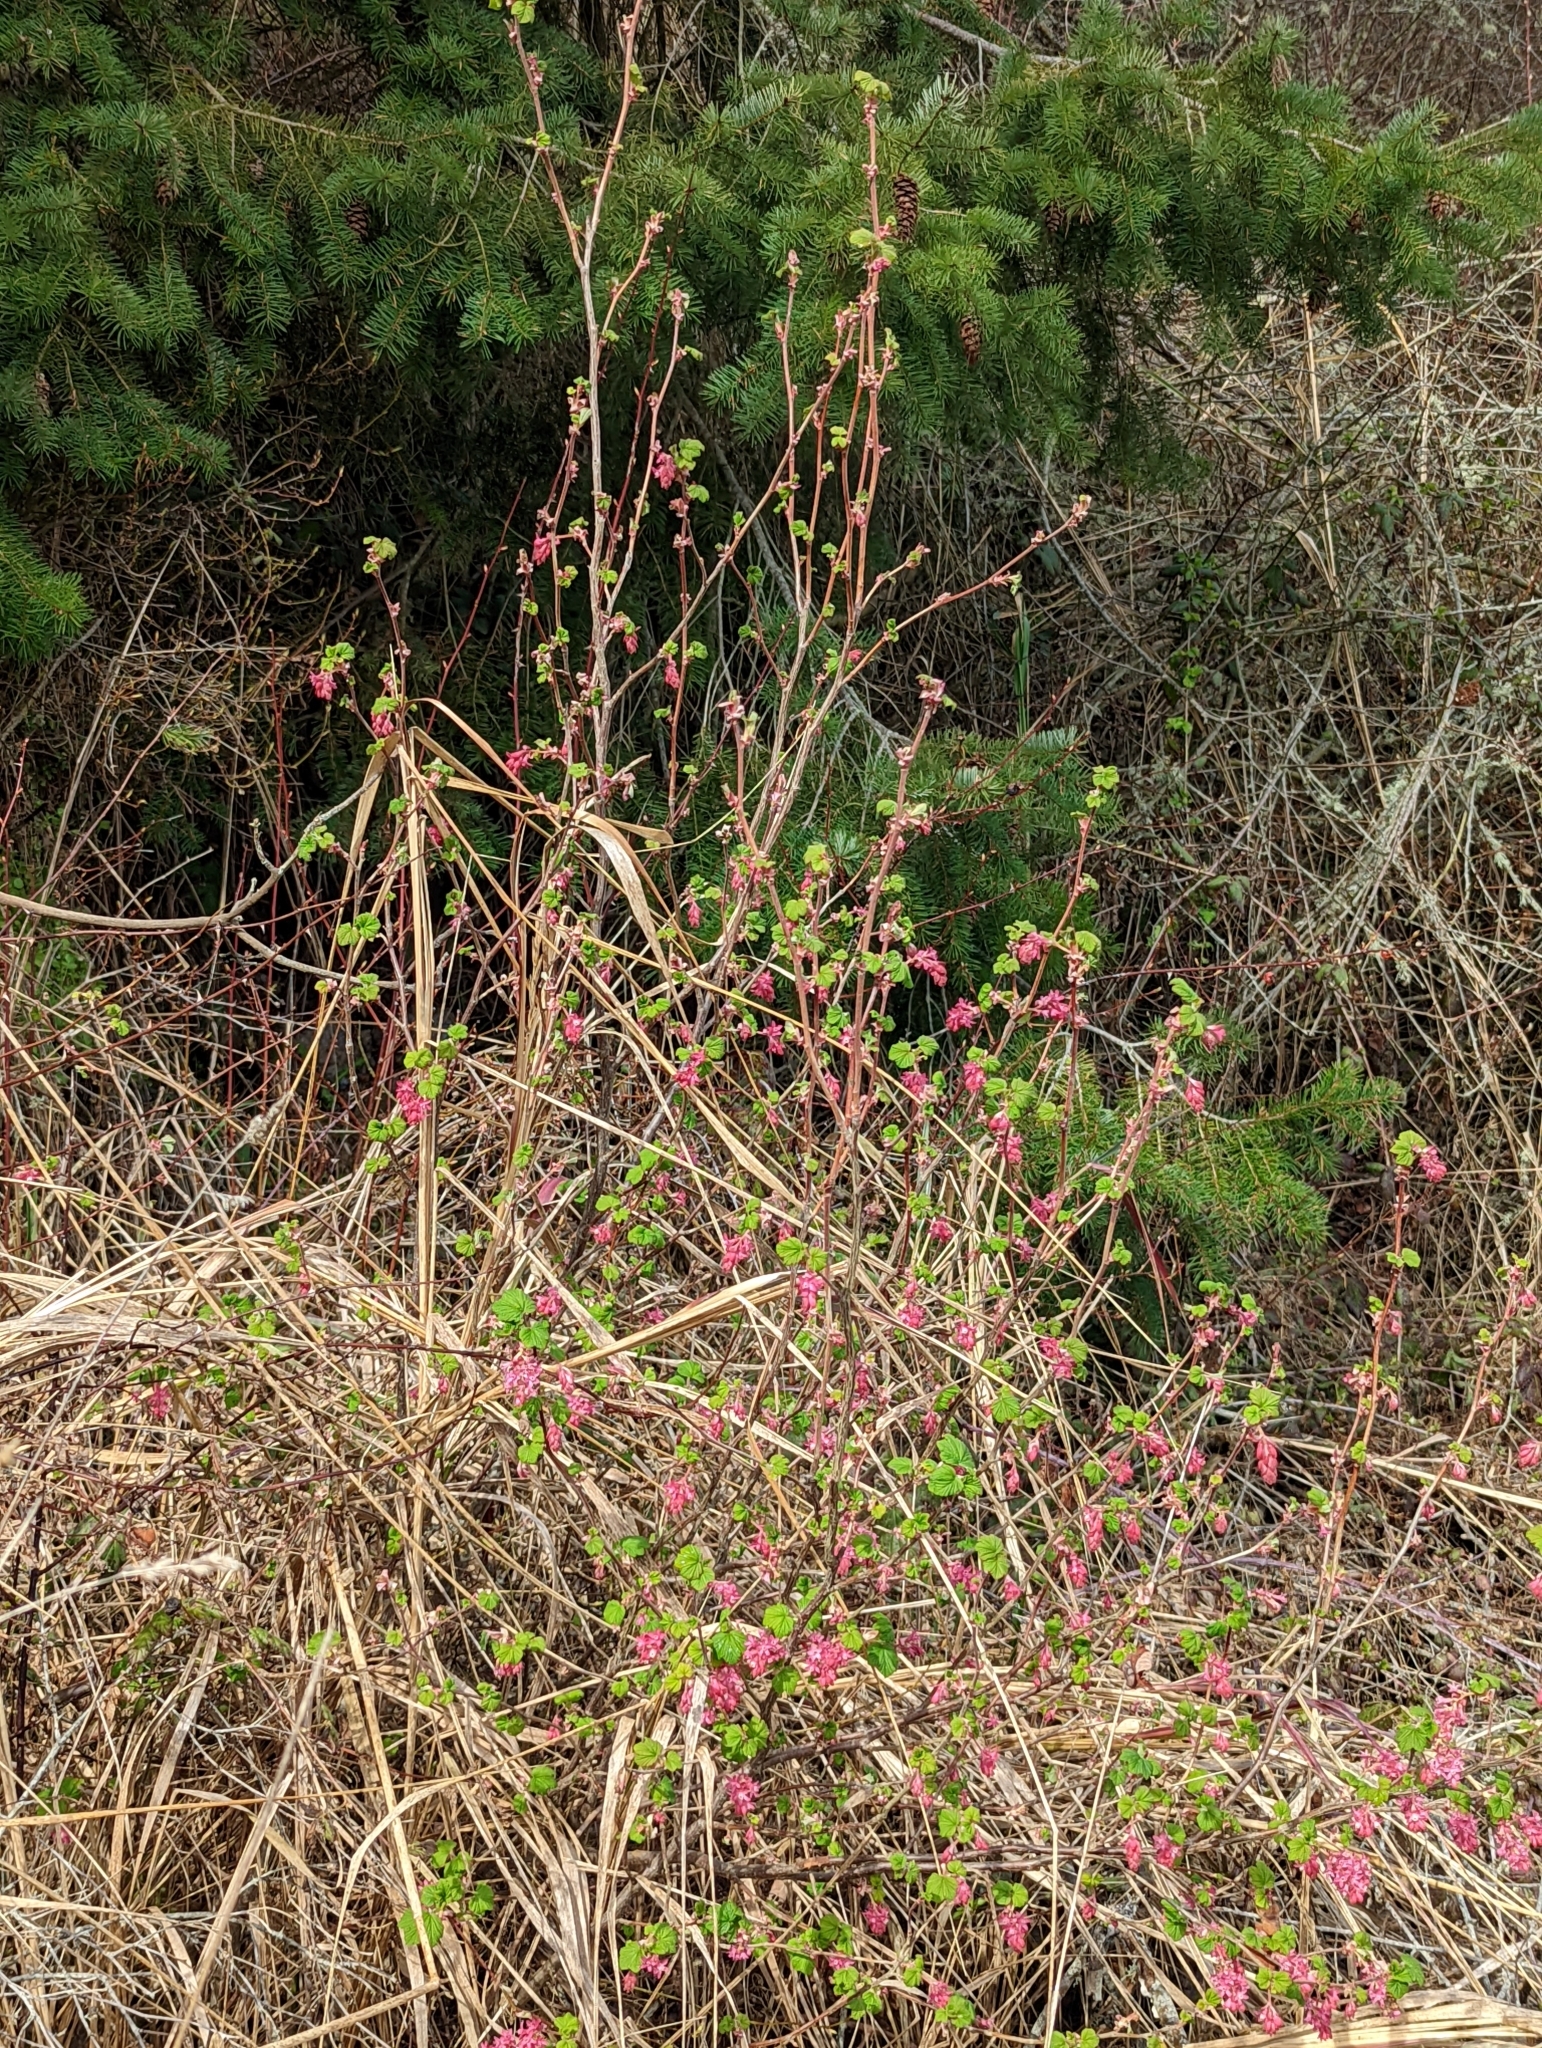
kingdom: Plantae
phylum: Tracheophyta
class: Magnoliopsida
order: Saxifragales
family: Grossulariaceae
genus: Ribes
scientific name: Ribes sanguineum
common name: Flowering currant
